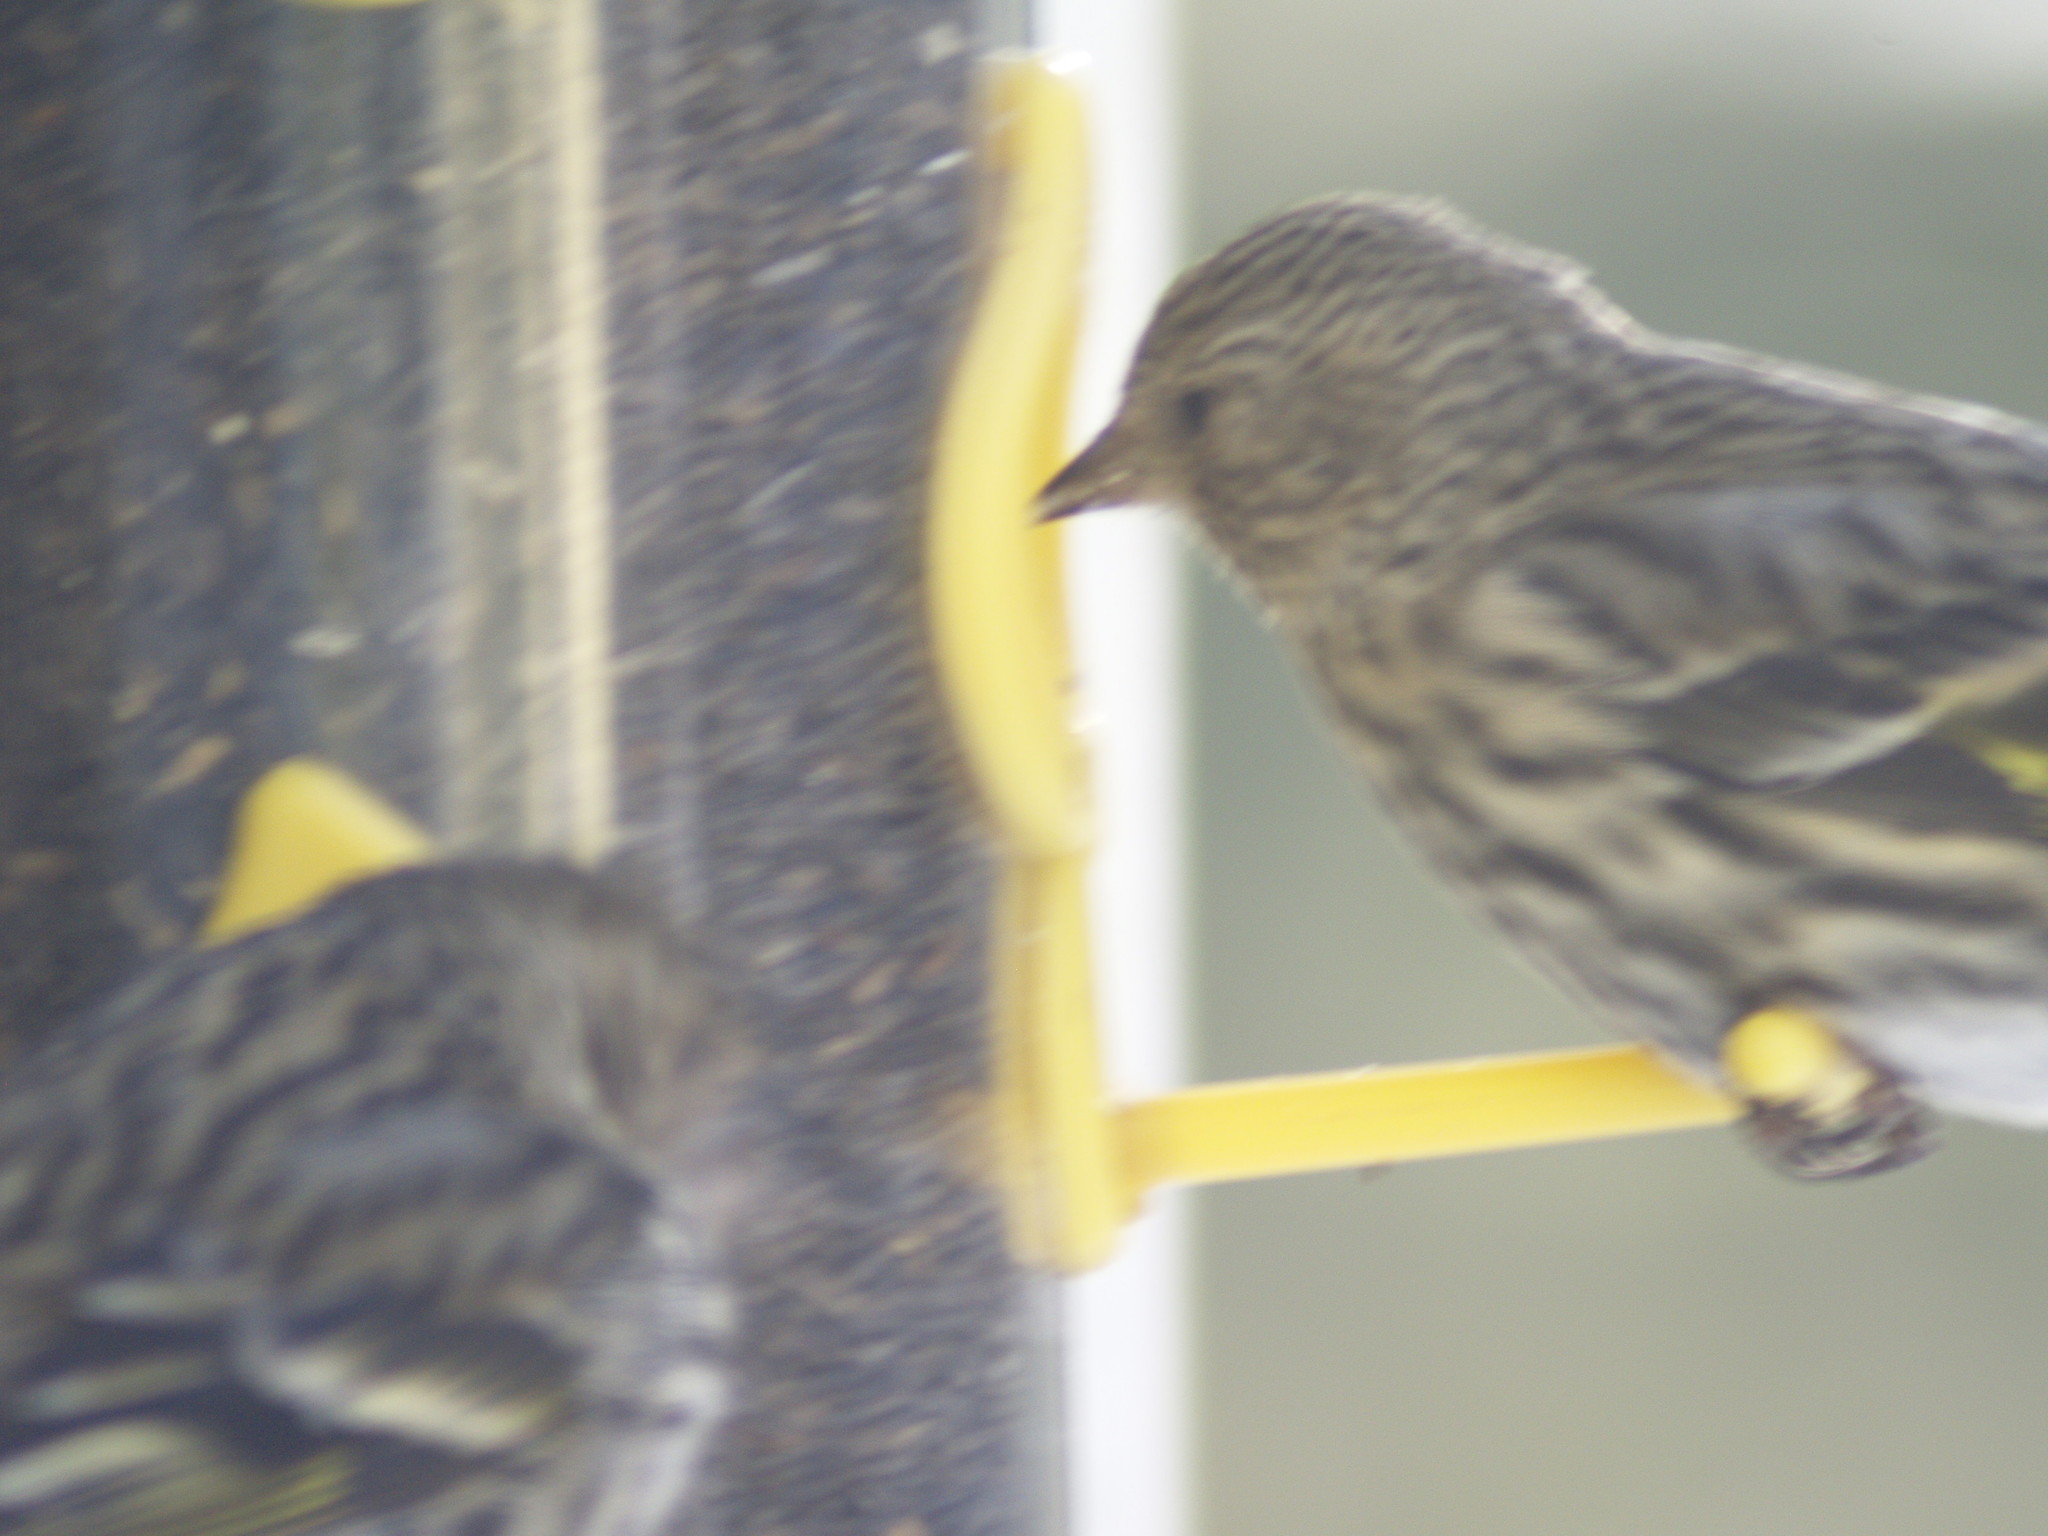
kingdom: Animalia
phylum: Chordata
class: Aves
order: Passeriformes
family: Fringillidae
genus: Spinus
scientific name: Spinus pinus
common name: Pine siskin
